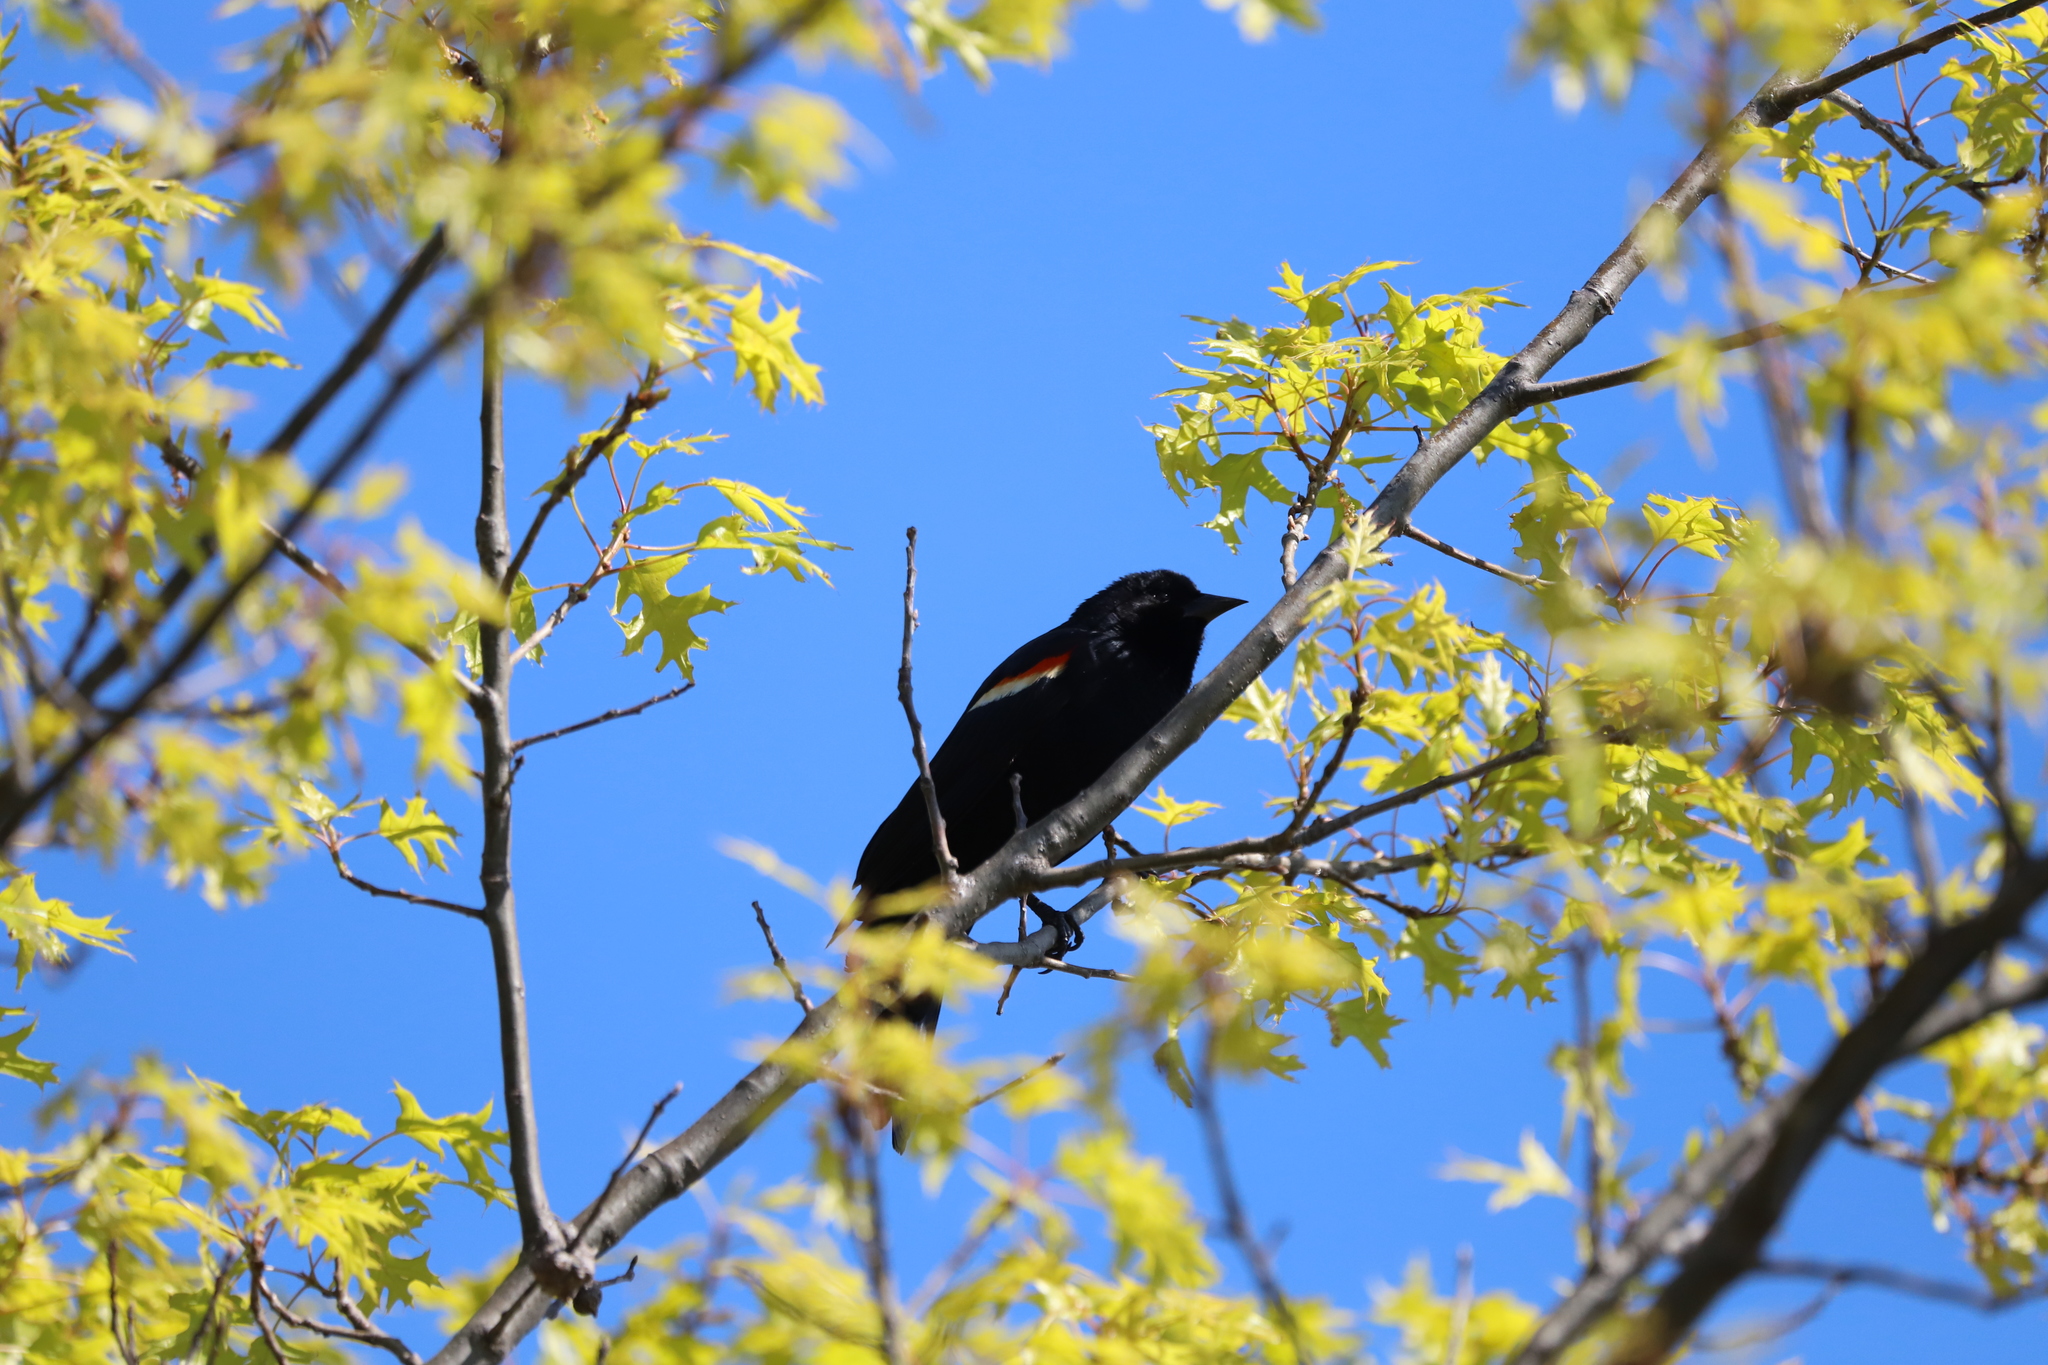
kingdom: Animalia
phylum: Chordata
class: Aves
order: Passeriformes
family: Icteridae
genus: Agelaius
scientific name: Agelaius phoeniceus
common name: Red-winged blackbird
